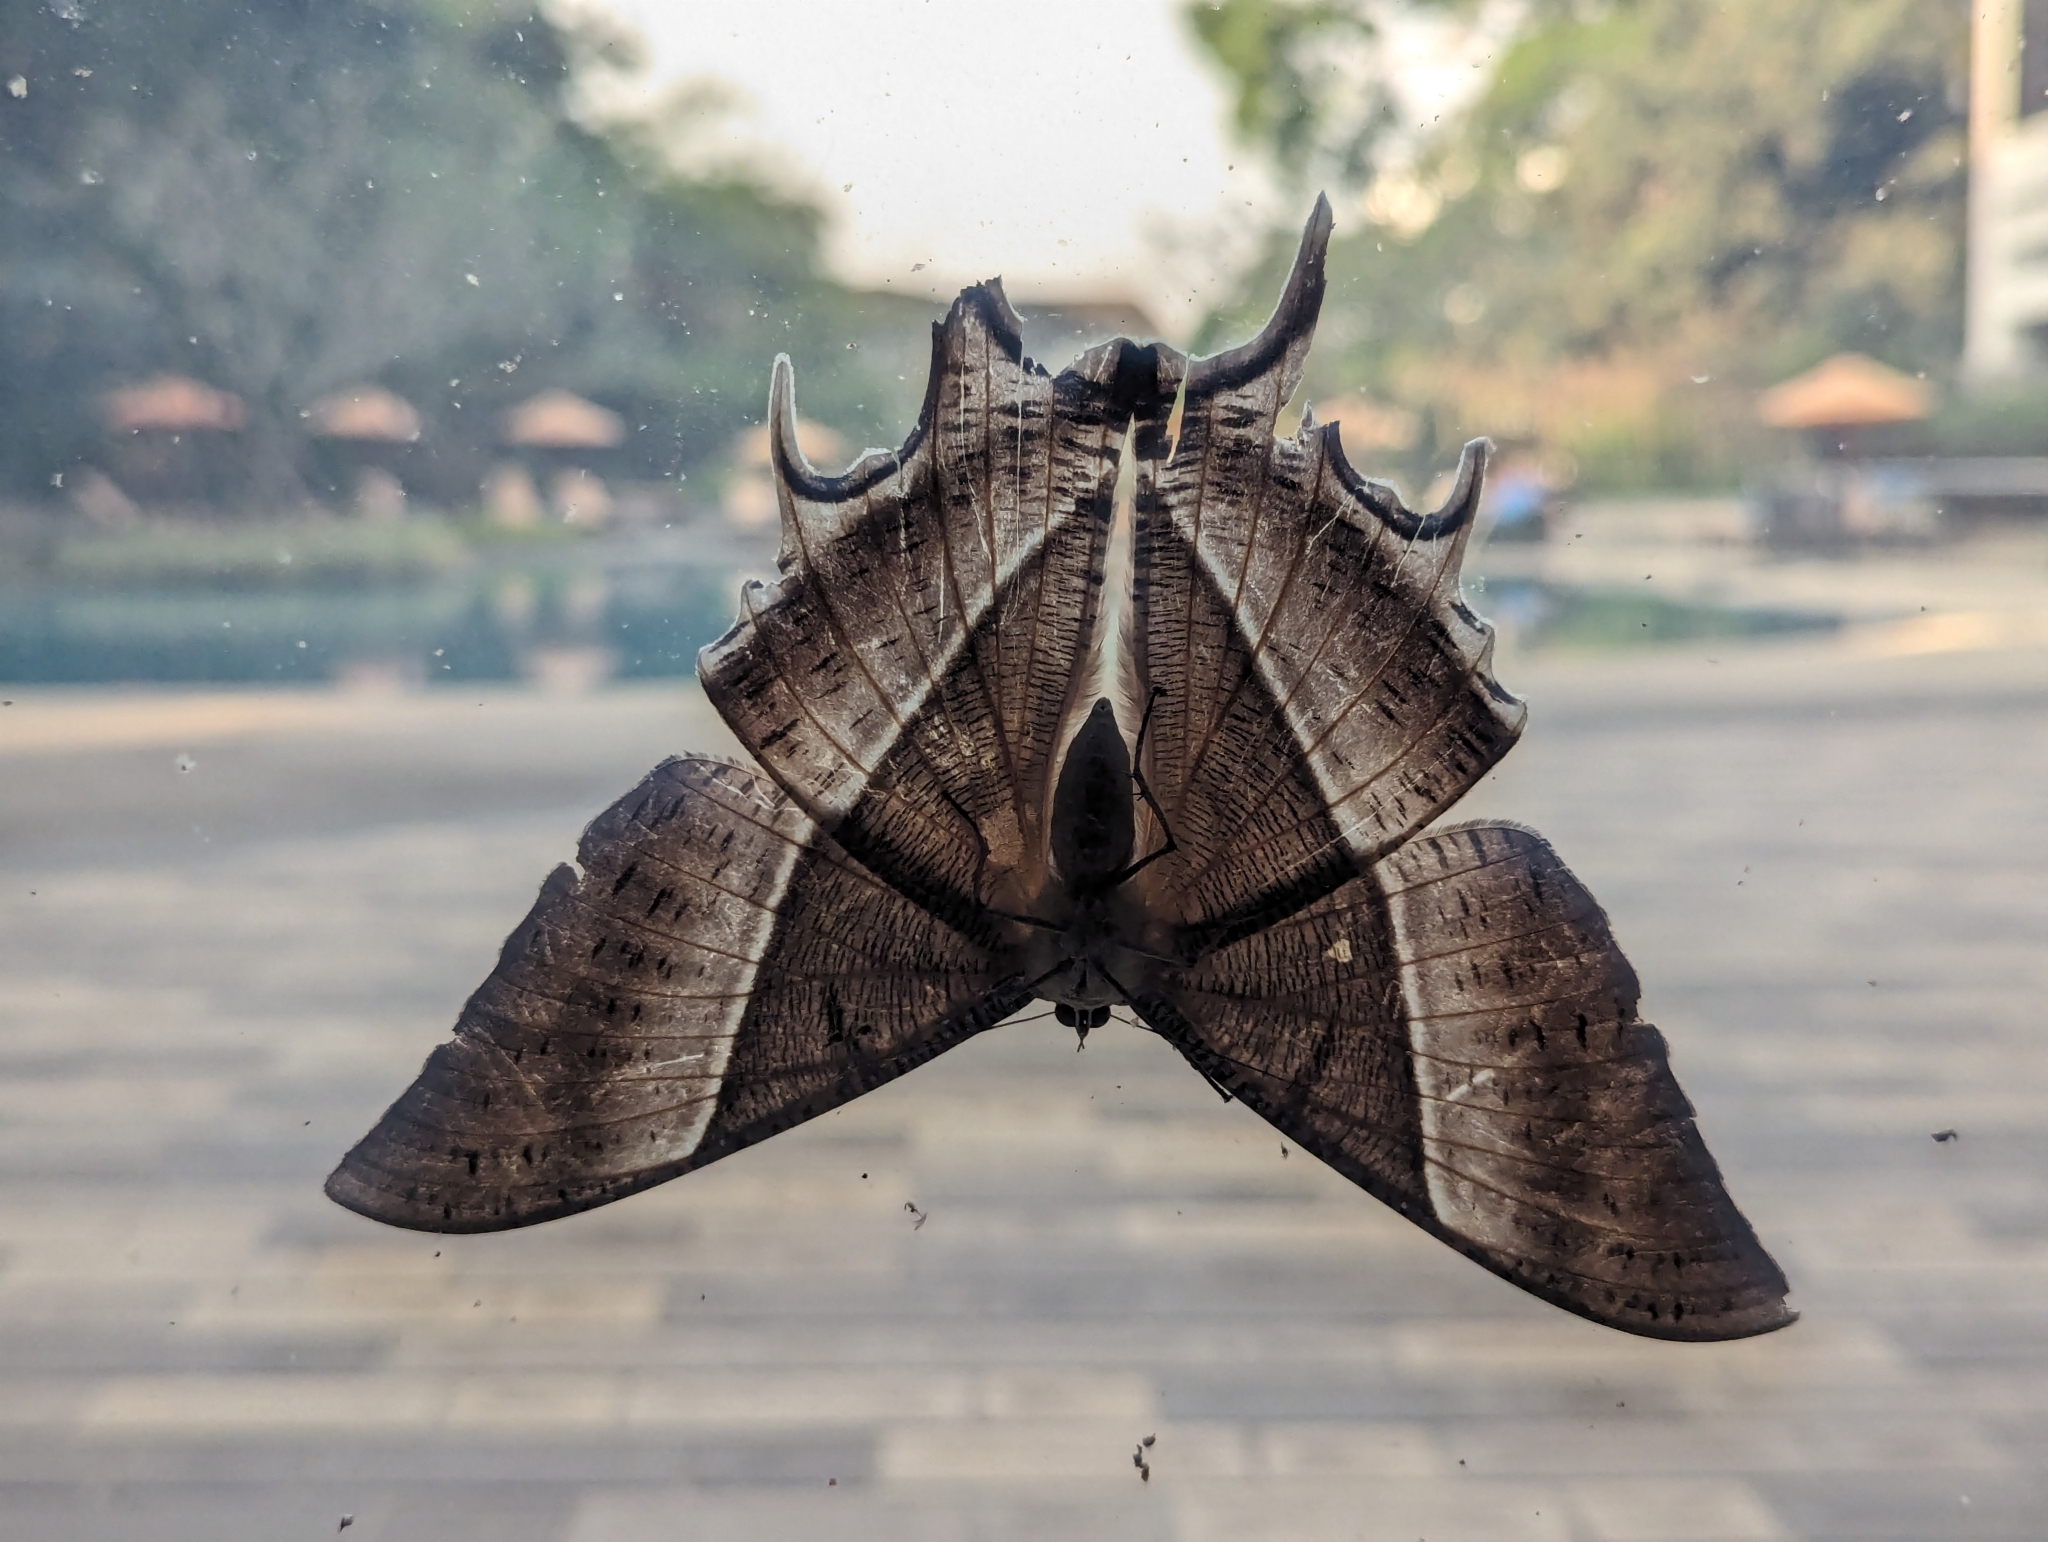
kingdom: Animalia
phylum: Arthropoda
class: Insecta
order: Lepidoptera
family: Uraniidae
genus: Lyssa
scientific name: Lyssa zampa
